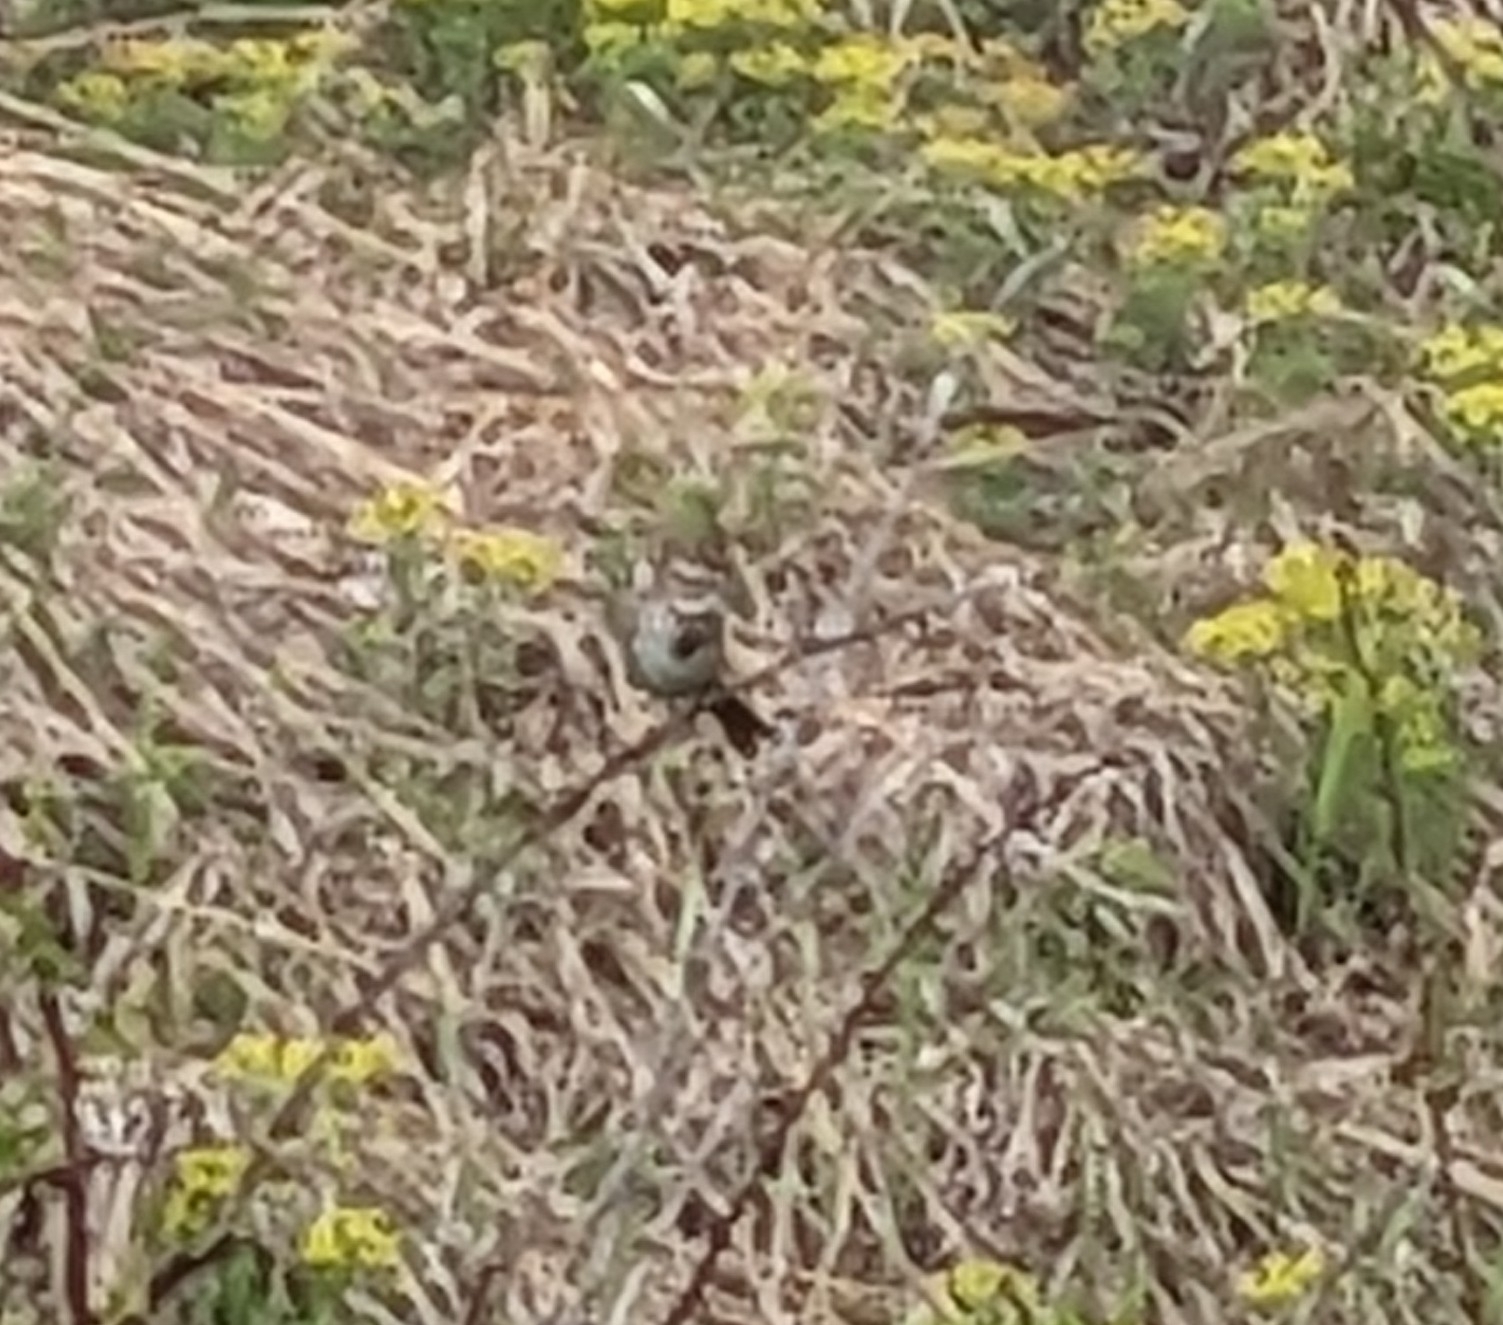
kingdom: Animalia
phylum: Chordata
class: Aves
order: Passeriformes
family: Passerellidae
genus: Melospiza
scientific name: Melospiza melodia
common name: Song sparrow
